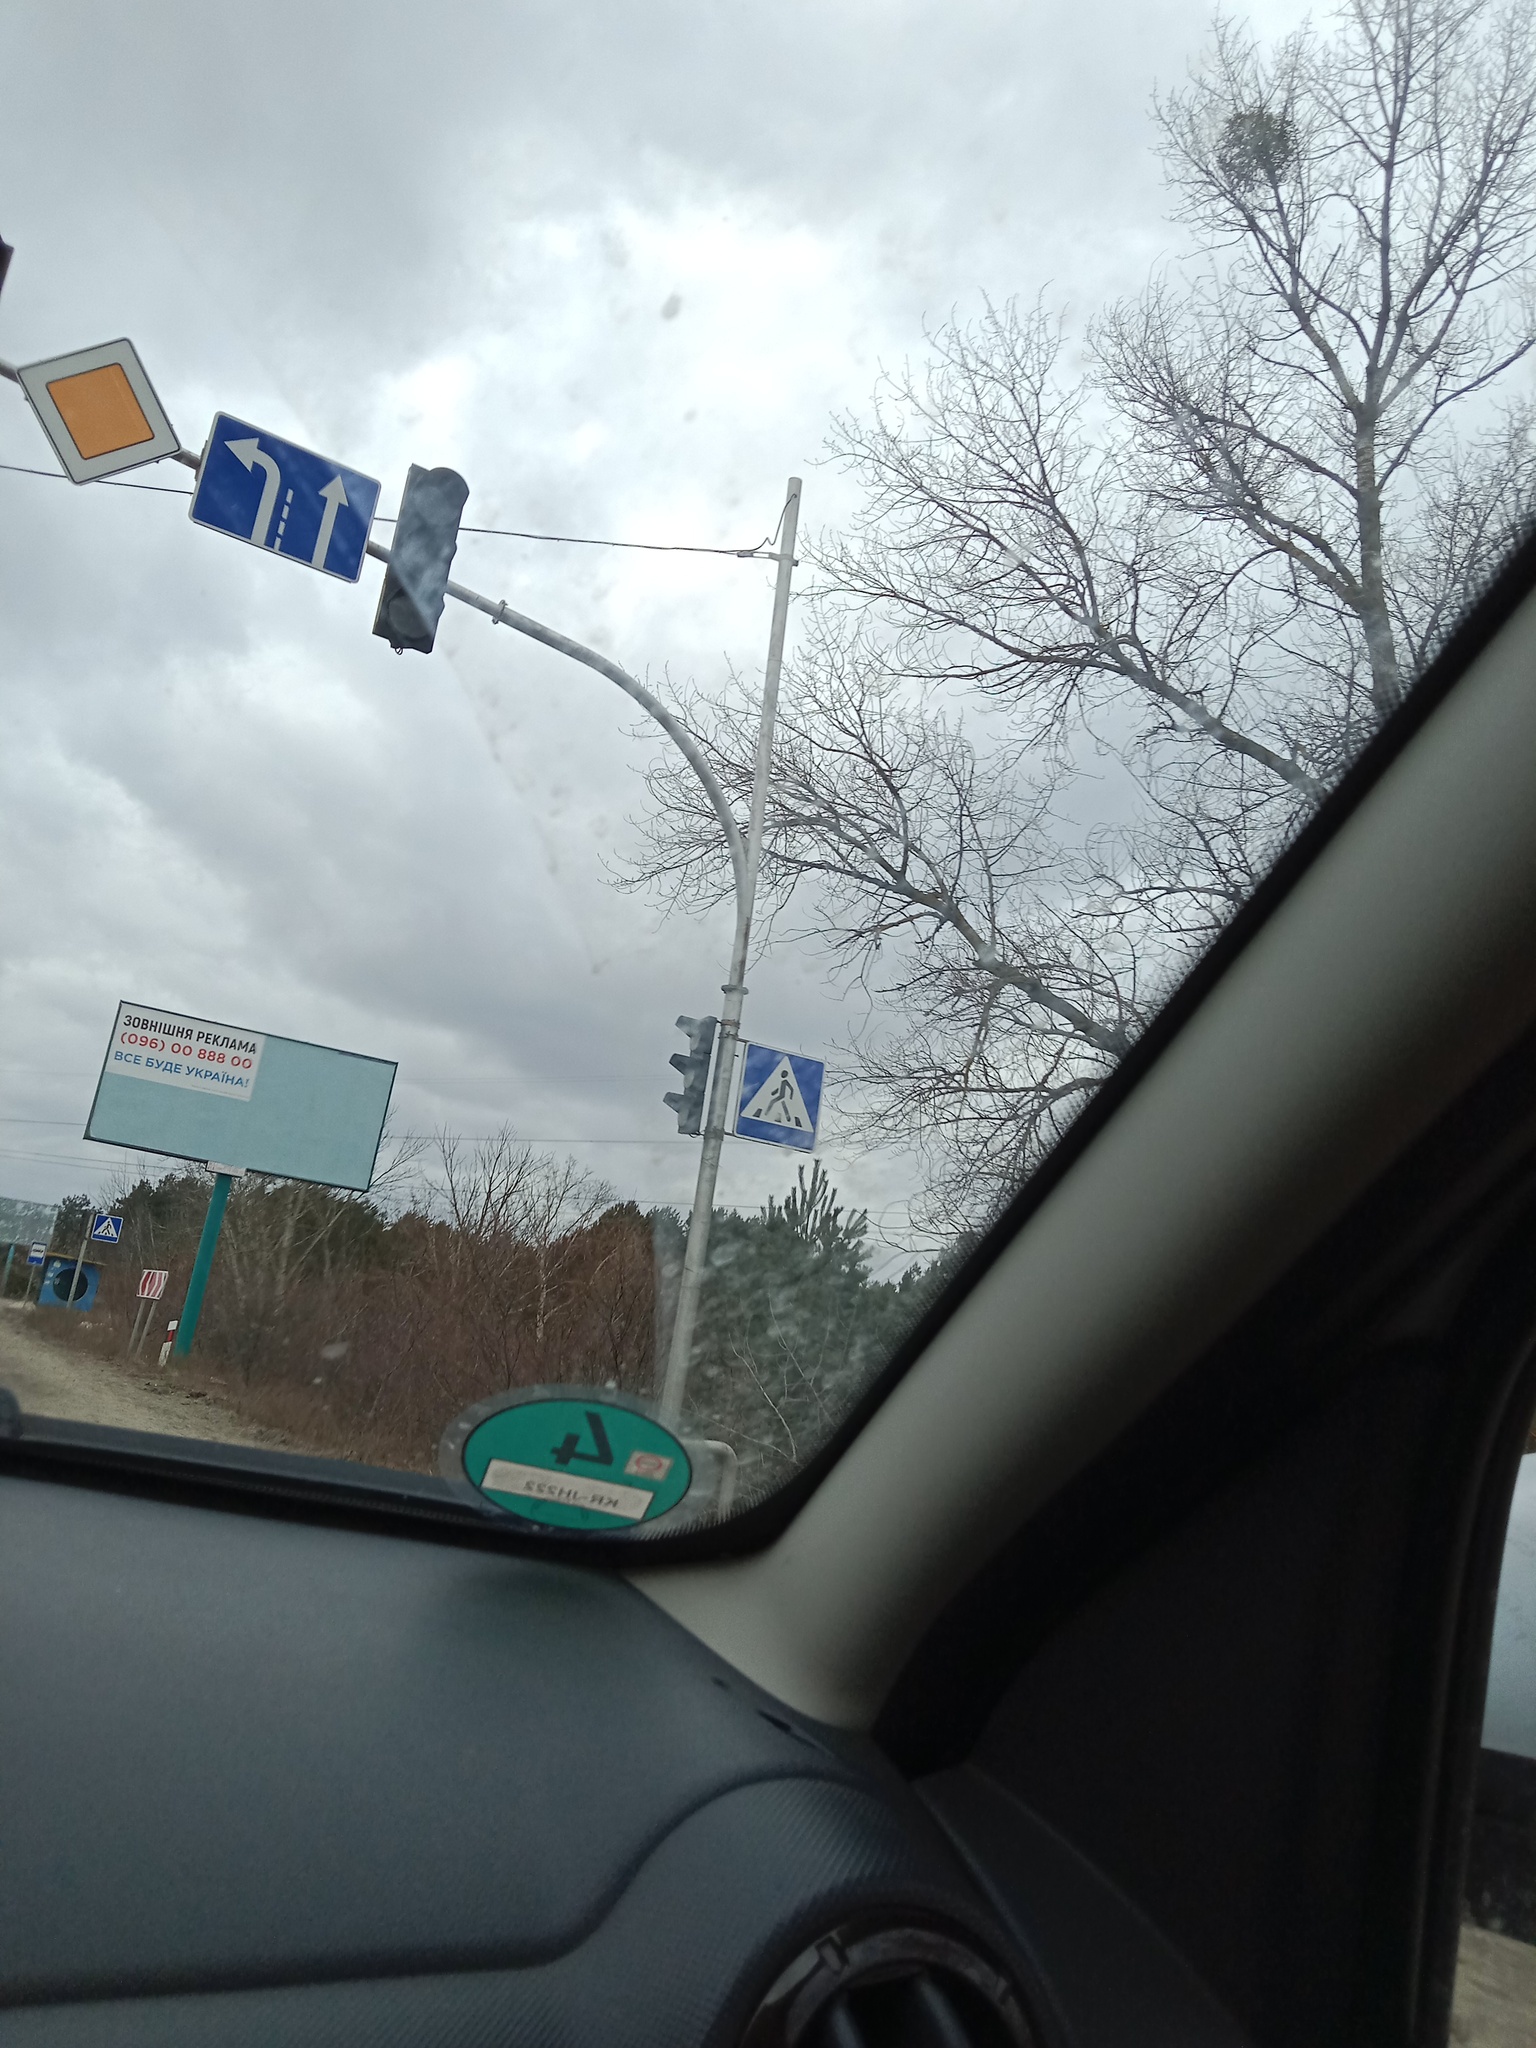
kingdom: Plantae
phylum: Tracheophyta
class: Magnoliopsida
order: Santalales
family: Viscaceae
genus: Viscum
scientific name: Viscum album
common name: Mistletoe
